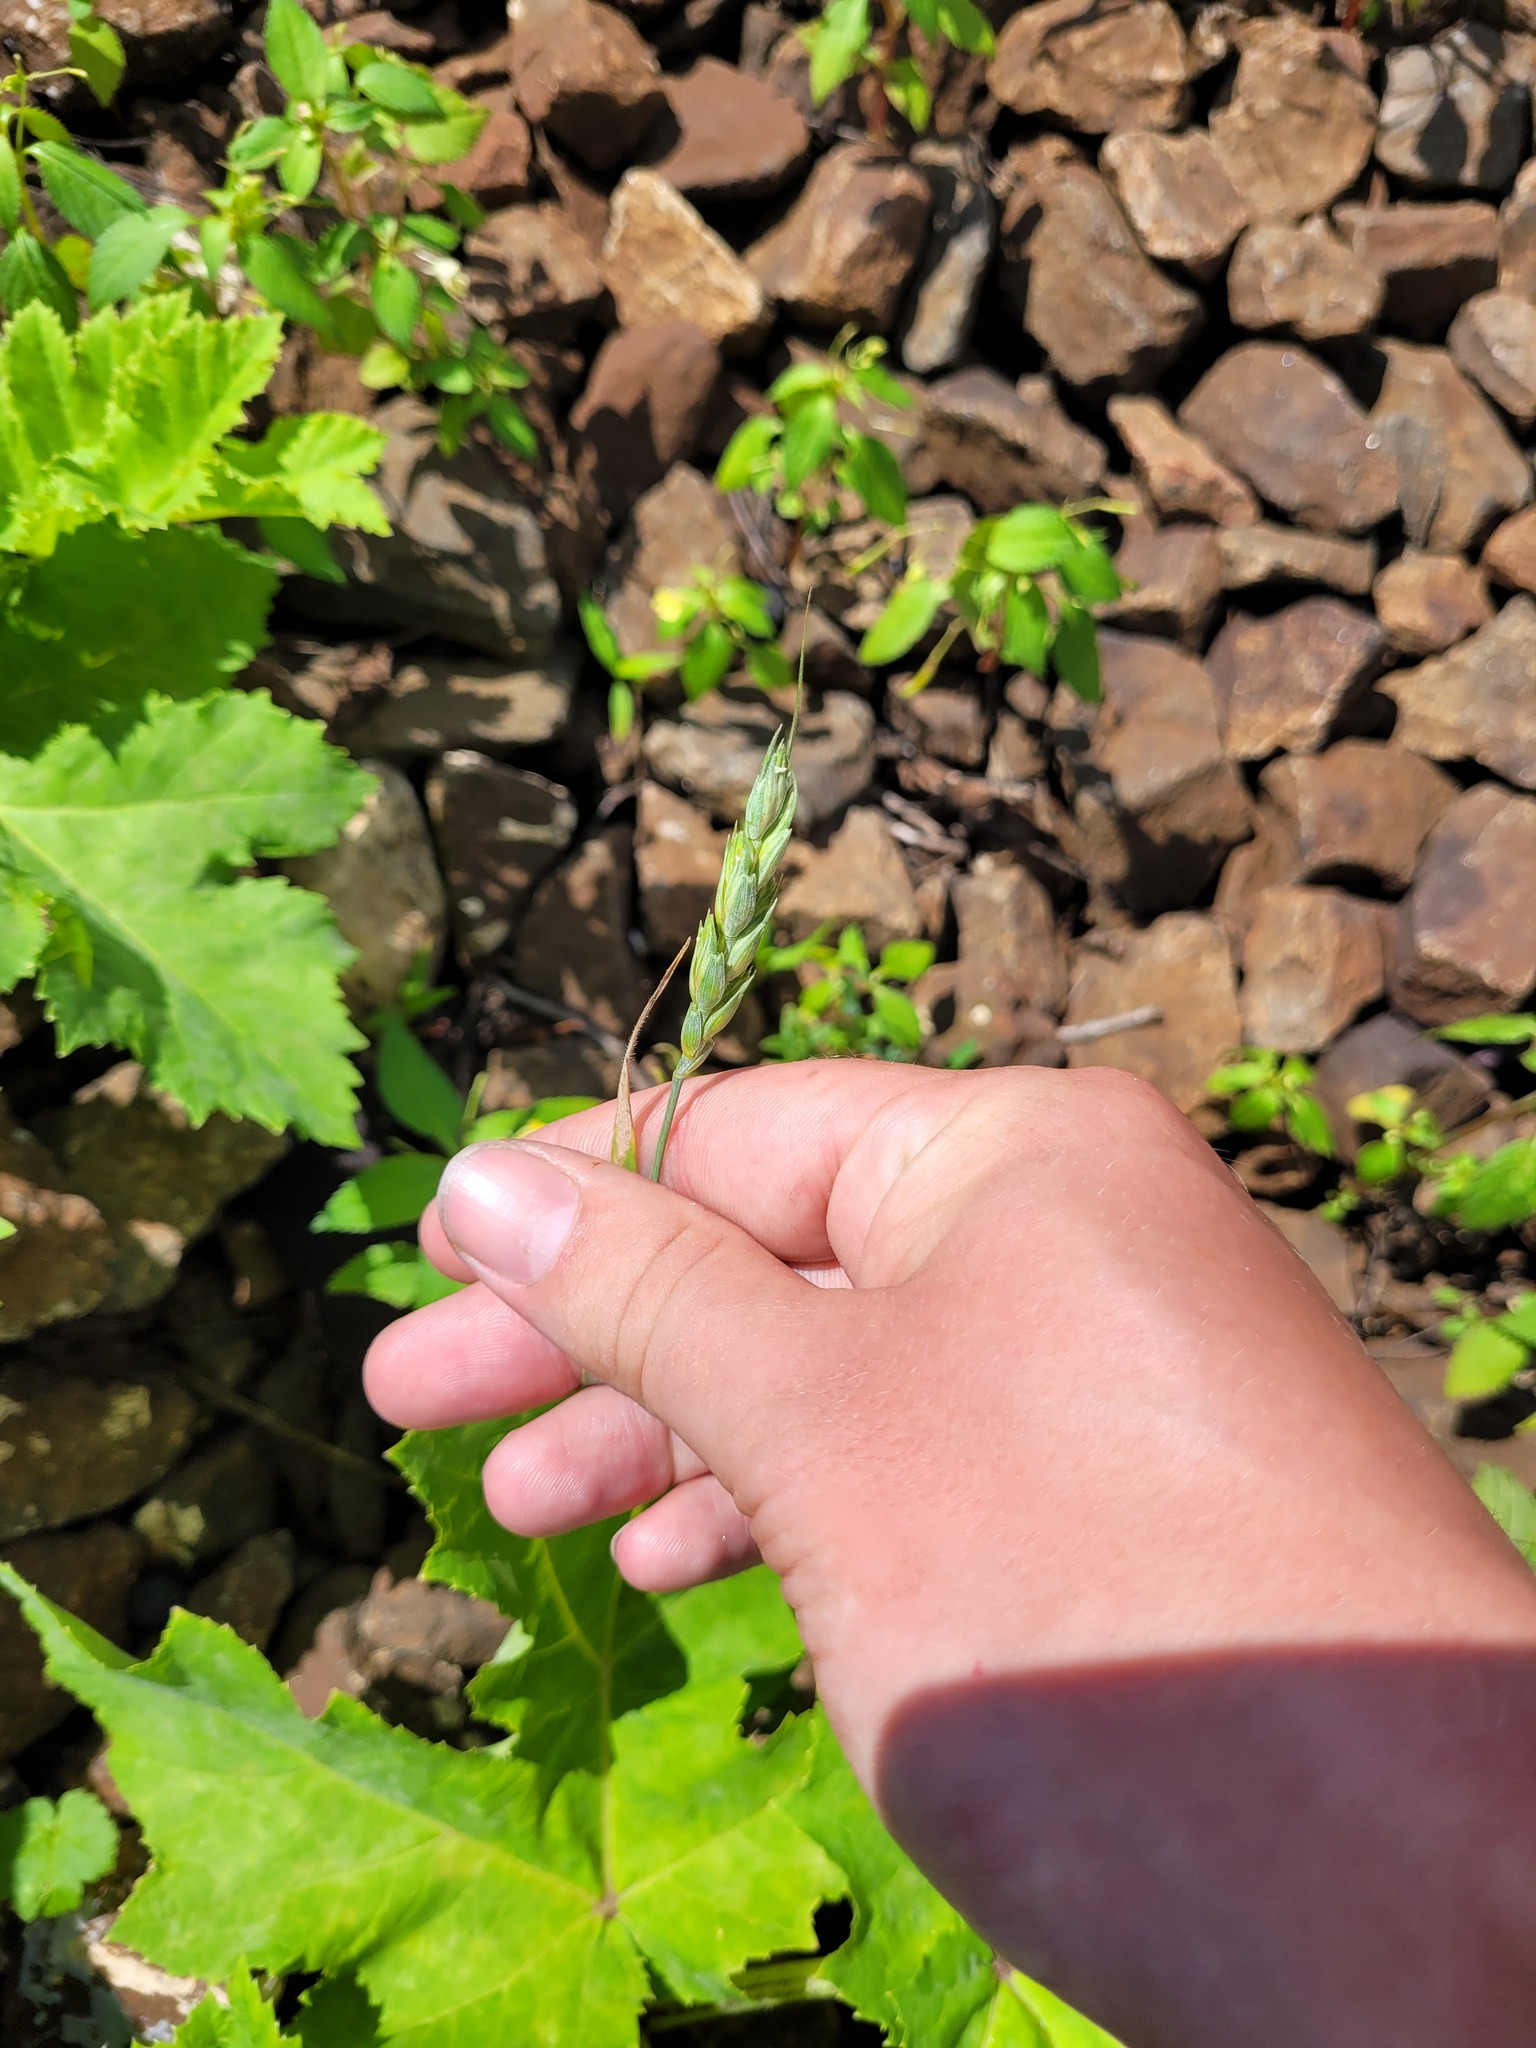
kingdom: Plantae
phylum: Tracheophyta
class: Liliopsida
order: Poales
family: Poaceae
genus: Triticum
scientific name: Triticum aestivum
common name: Common wheat
